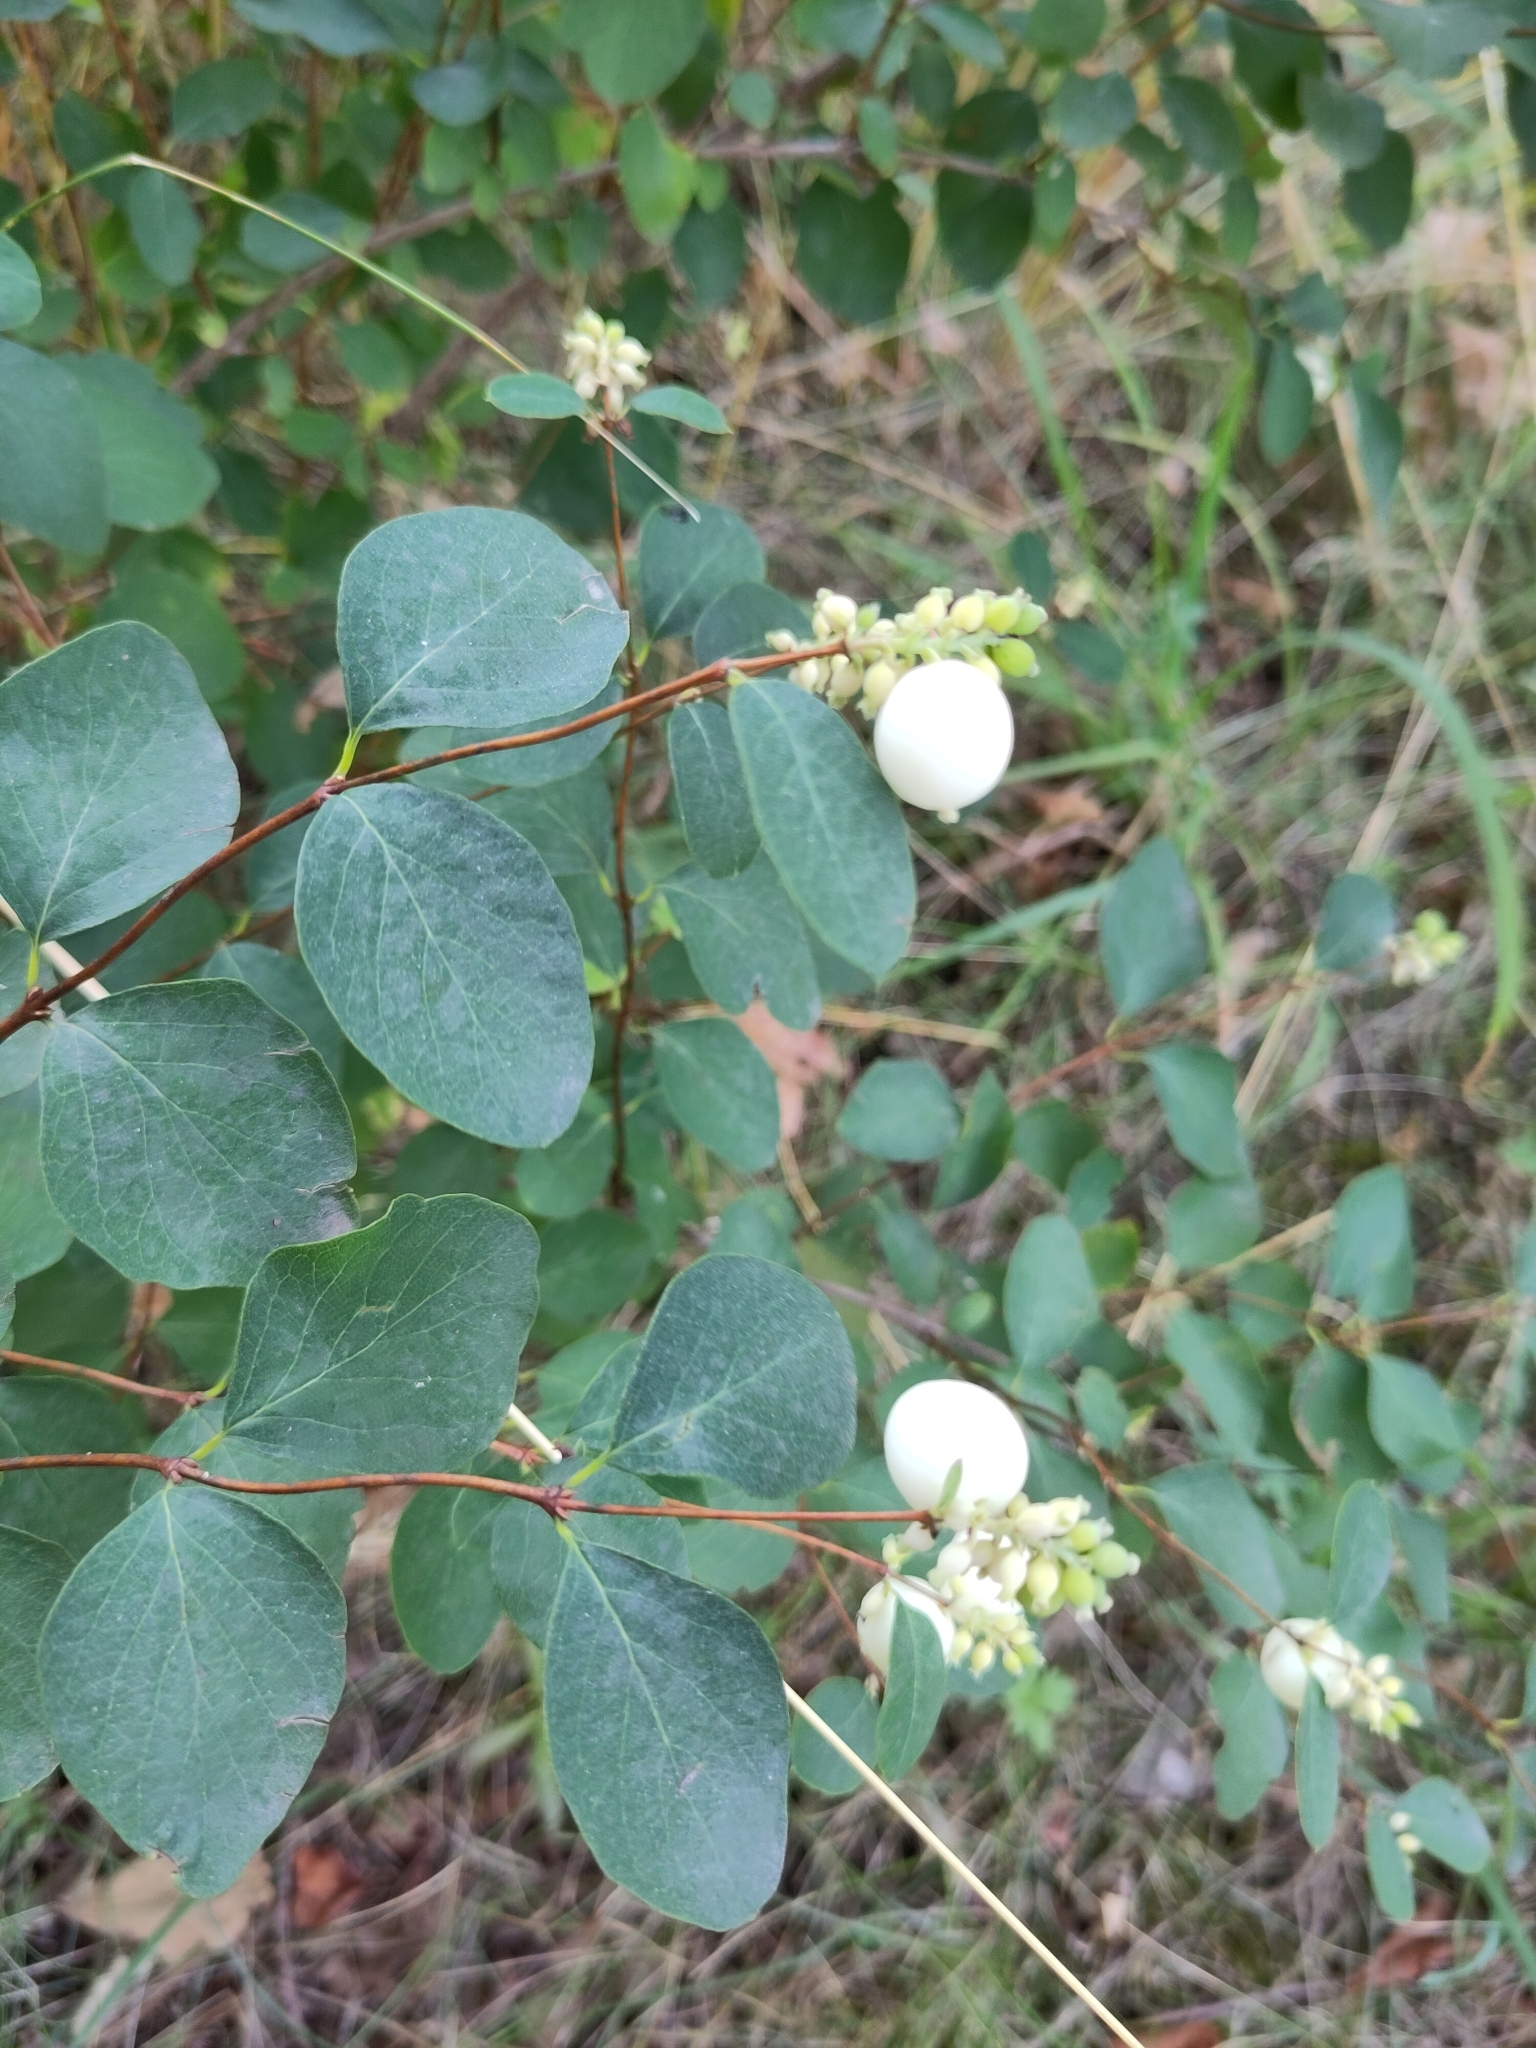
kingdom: Plantae
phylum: Tracheophyta
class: Magnoliopsida
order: Dipsacales
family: Caprifoliaceae
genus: Symphoricarpos
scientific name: Symphoricarpos albus
